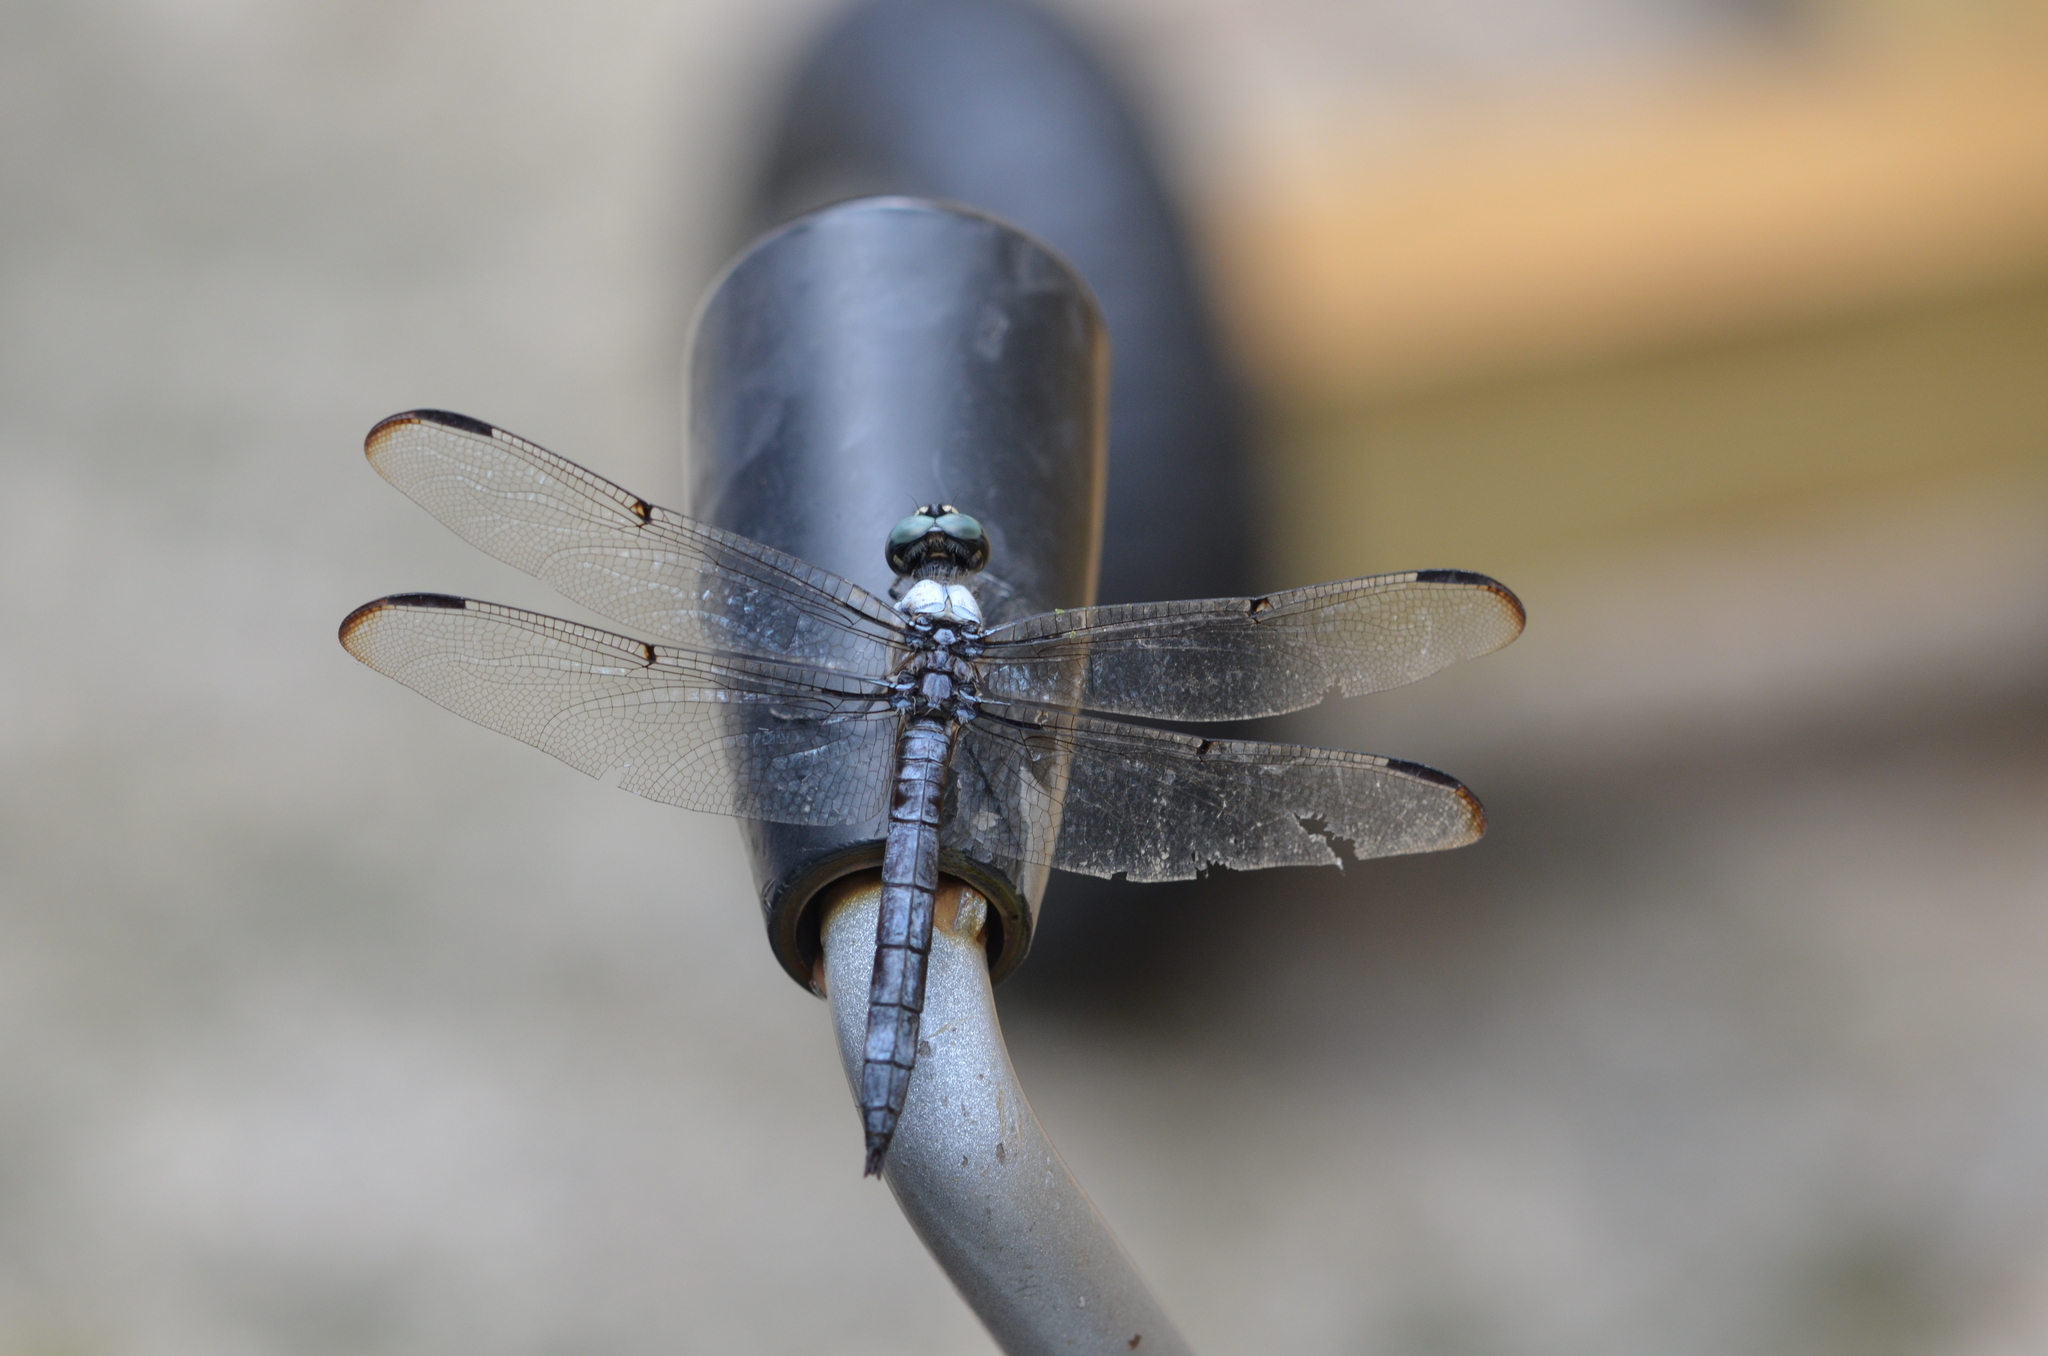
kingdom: Animalia
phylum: Arthropoda
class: Insecta
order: Odonata
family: Libellulidae
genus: Libellula
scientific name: Libellula vibrans
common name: Great blue skimmer
